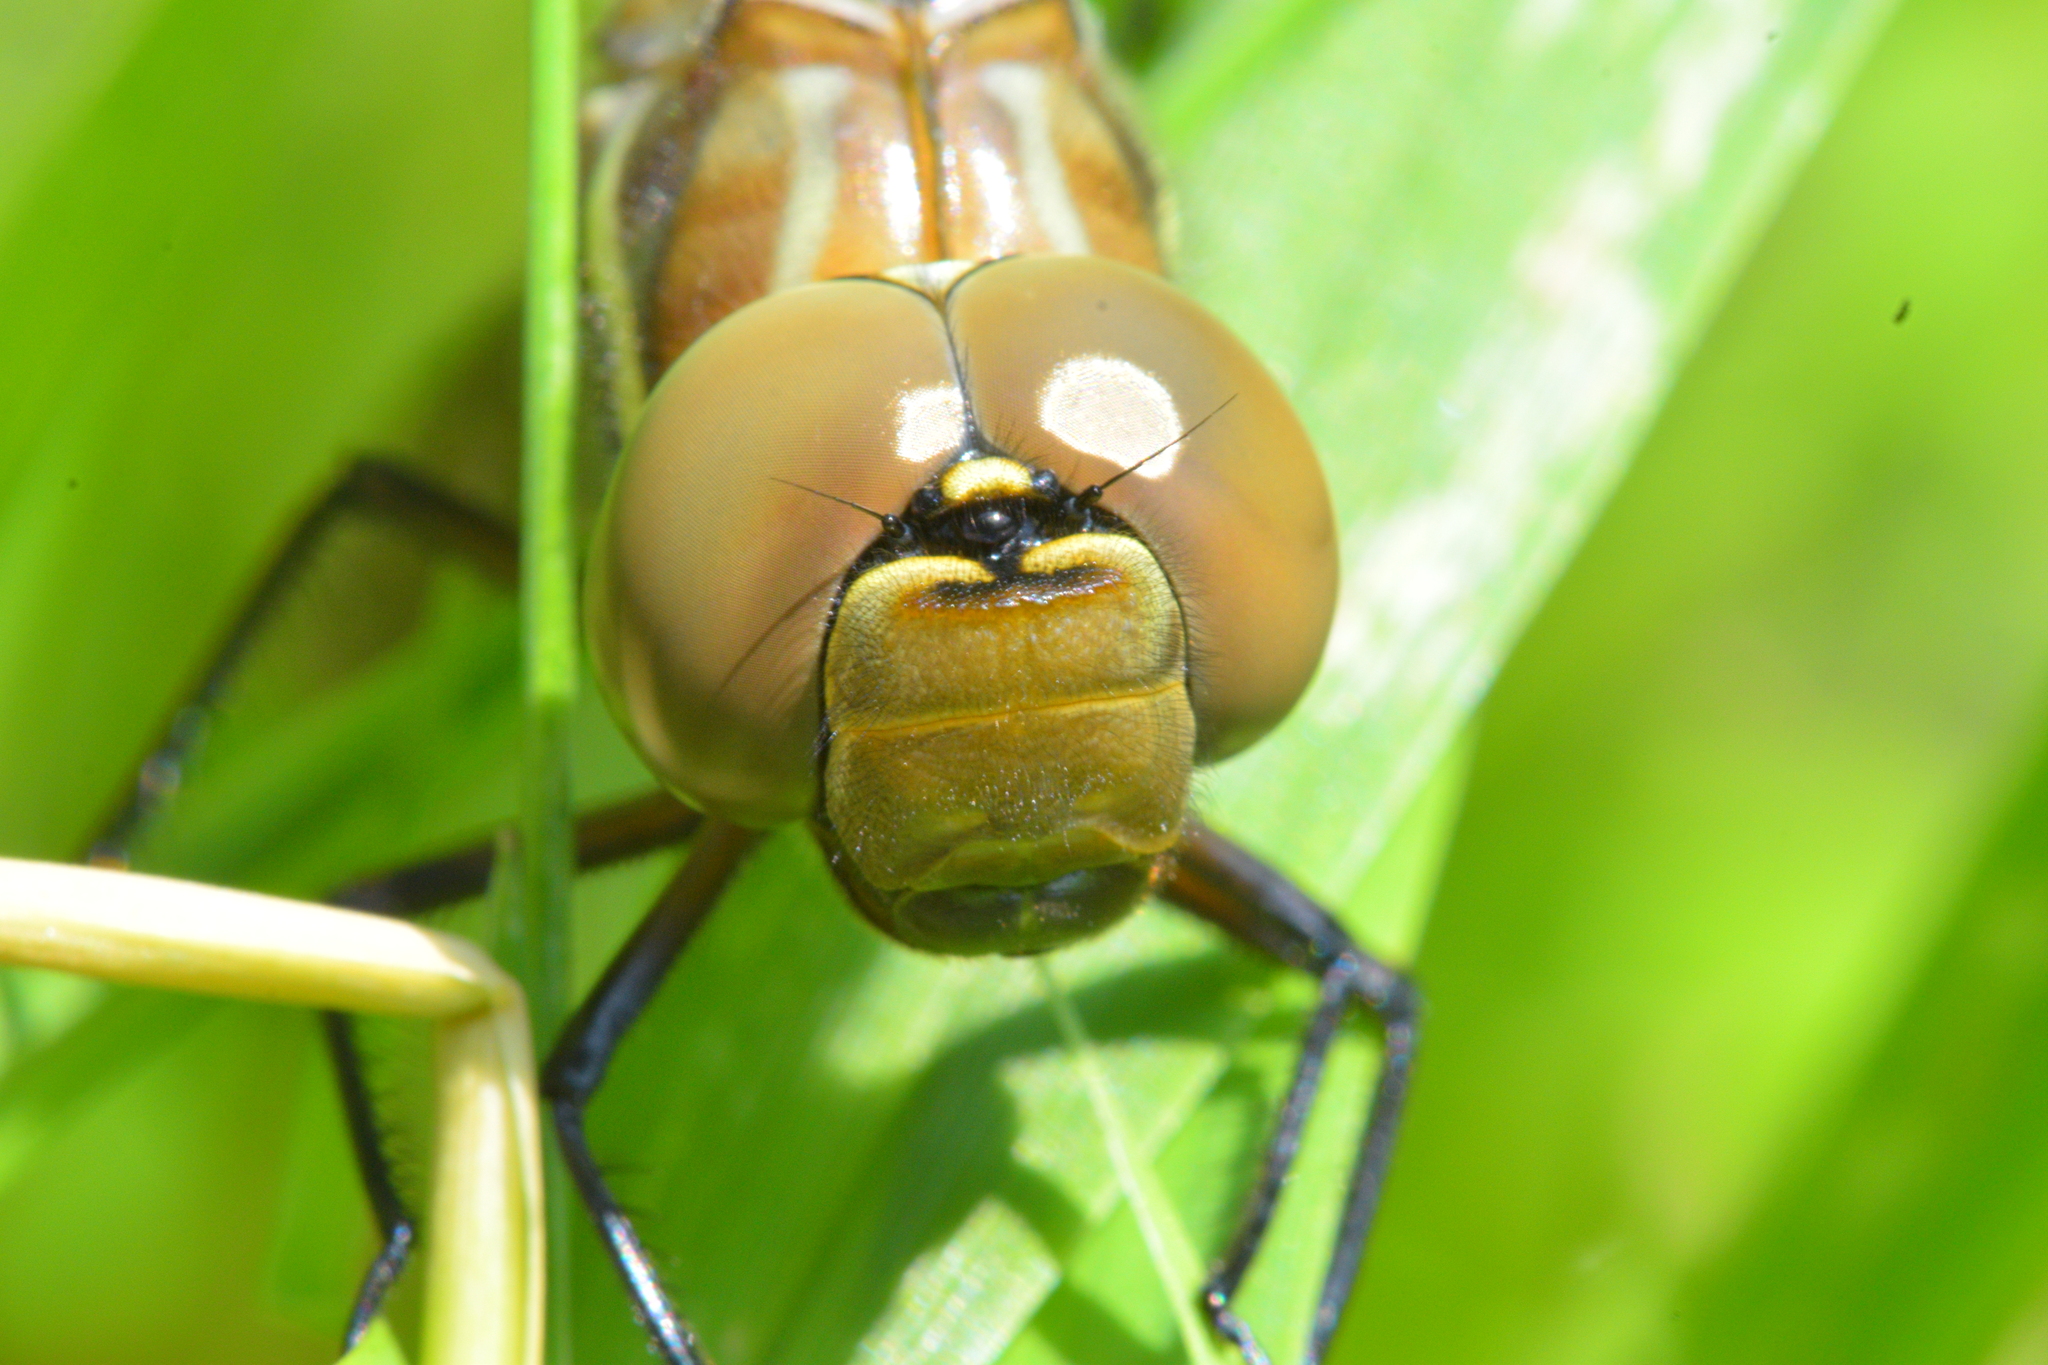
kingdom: Animalia
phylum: Arthropoda
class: Insecta
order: Odonata
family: Aeshnidae
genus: Aeshna
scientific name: Aeshna tuberculifera
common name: Aeschne à tubercules
